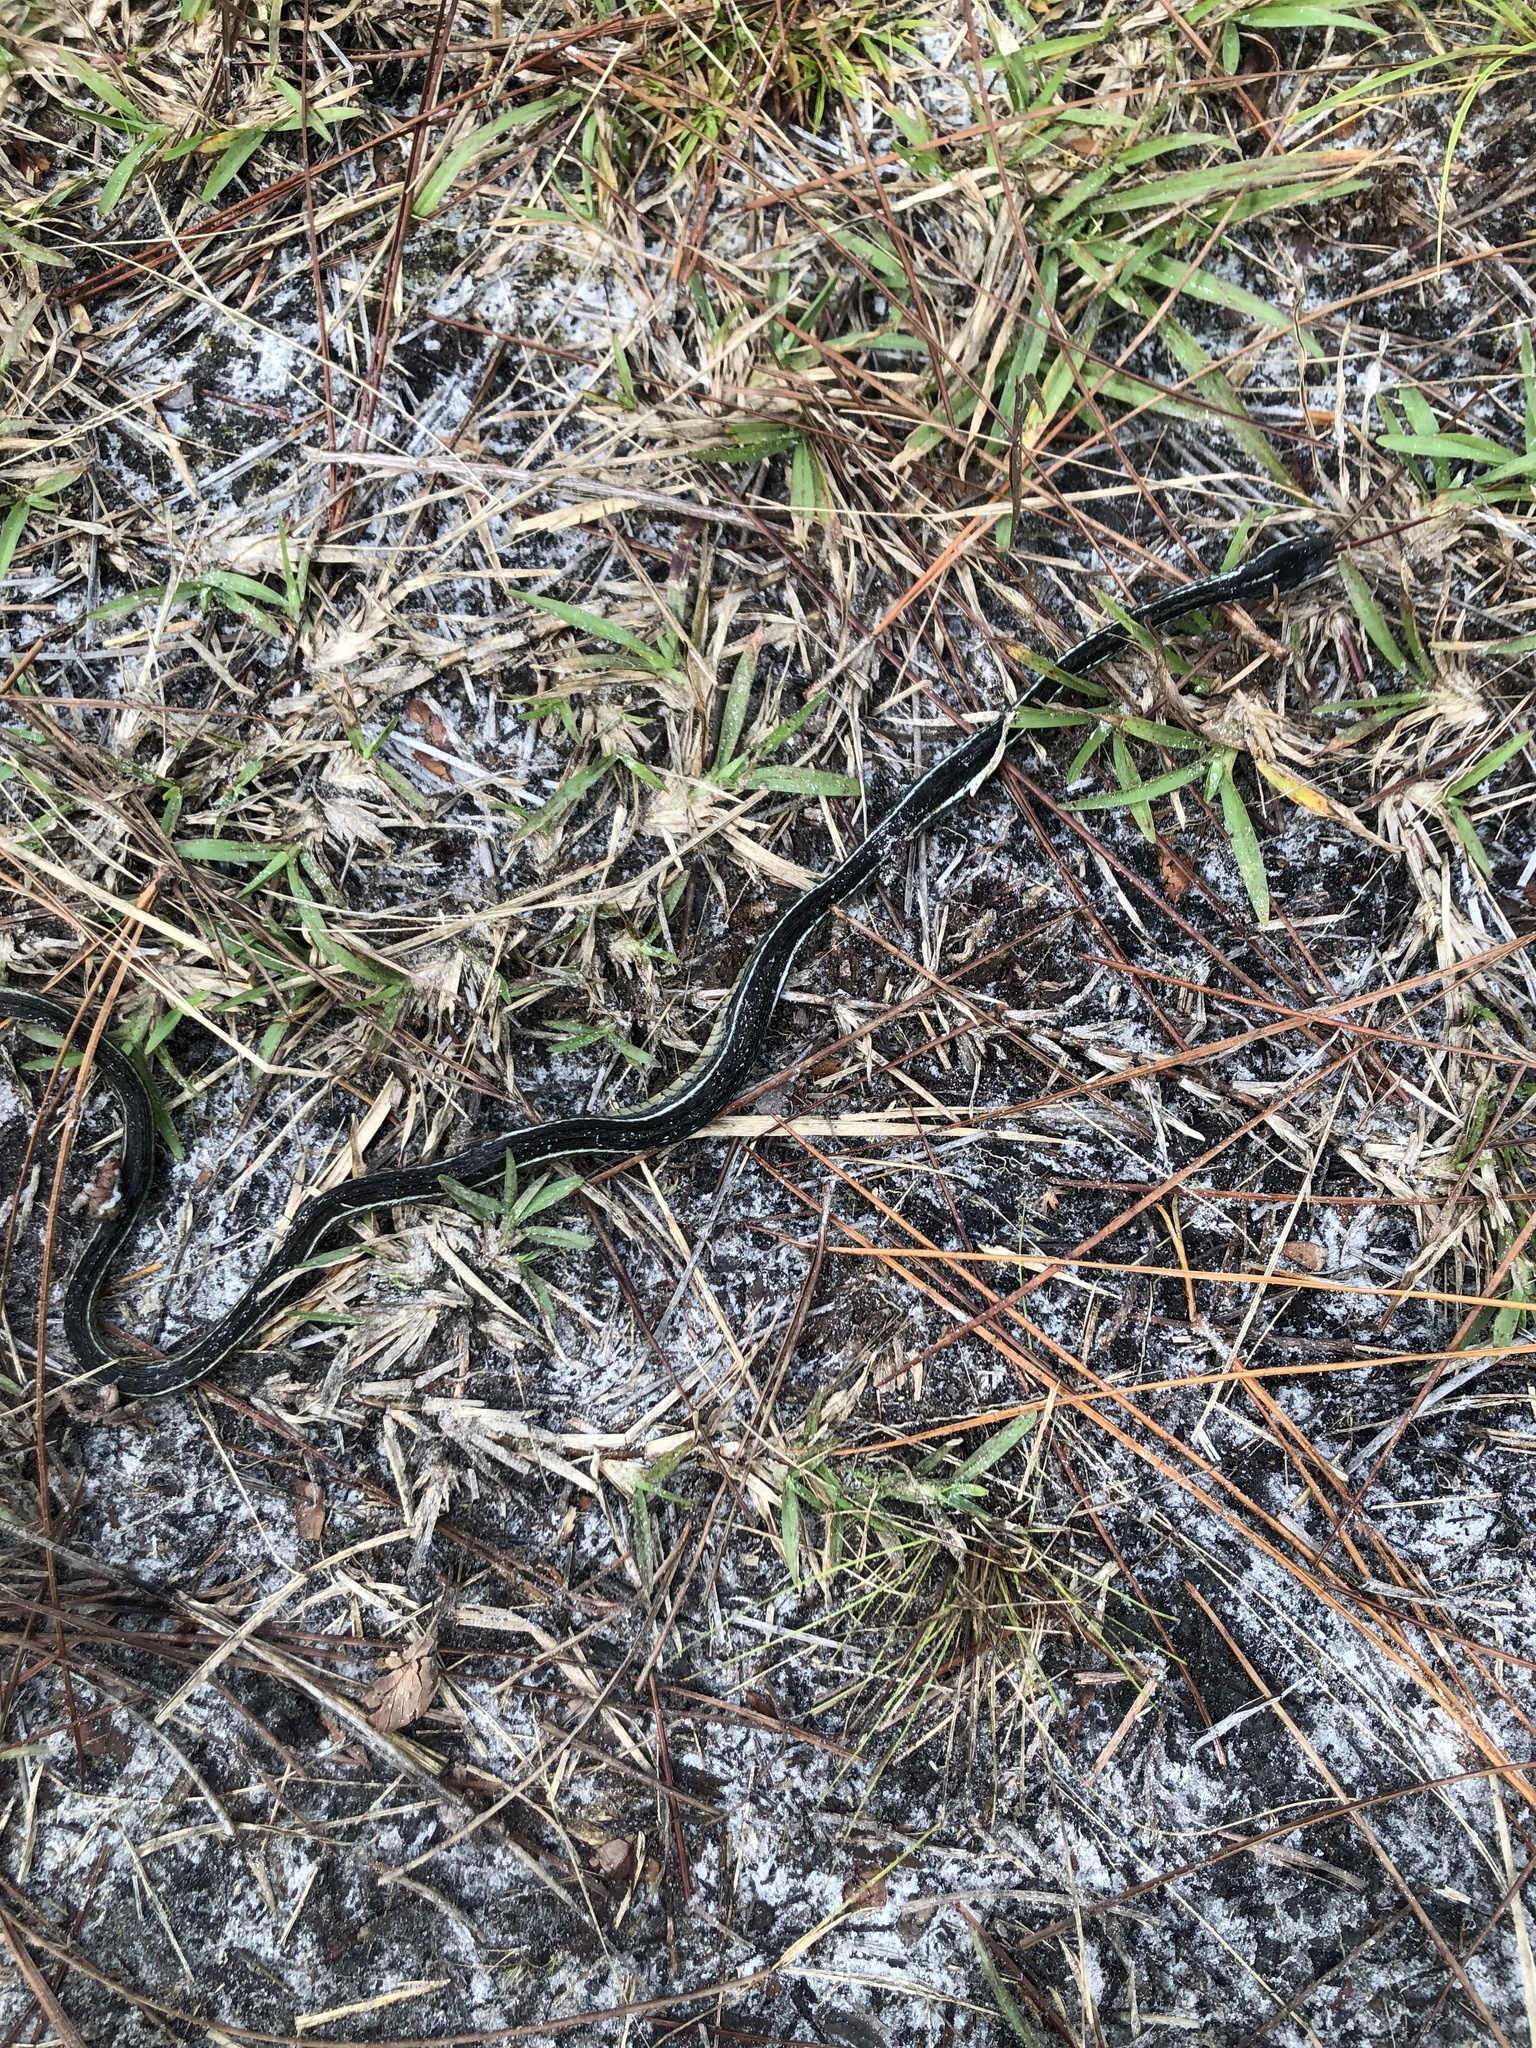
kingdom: Animalia
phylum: Chordata
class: Squamata
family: Colubridae
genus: Thamnophis
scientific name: Thamnophis saurita
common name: Eastern ribbonsnake
